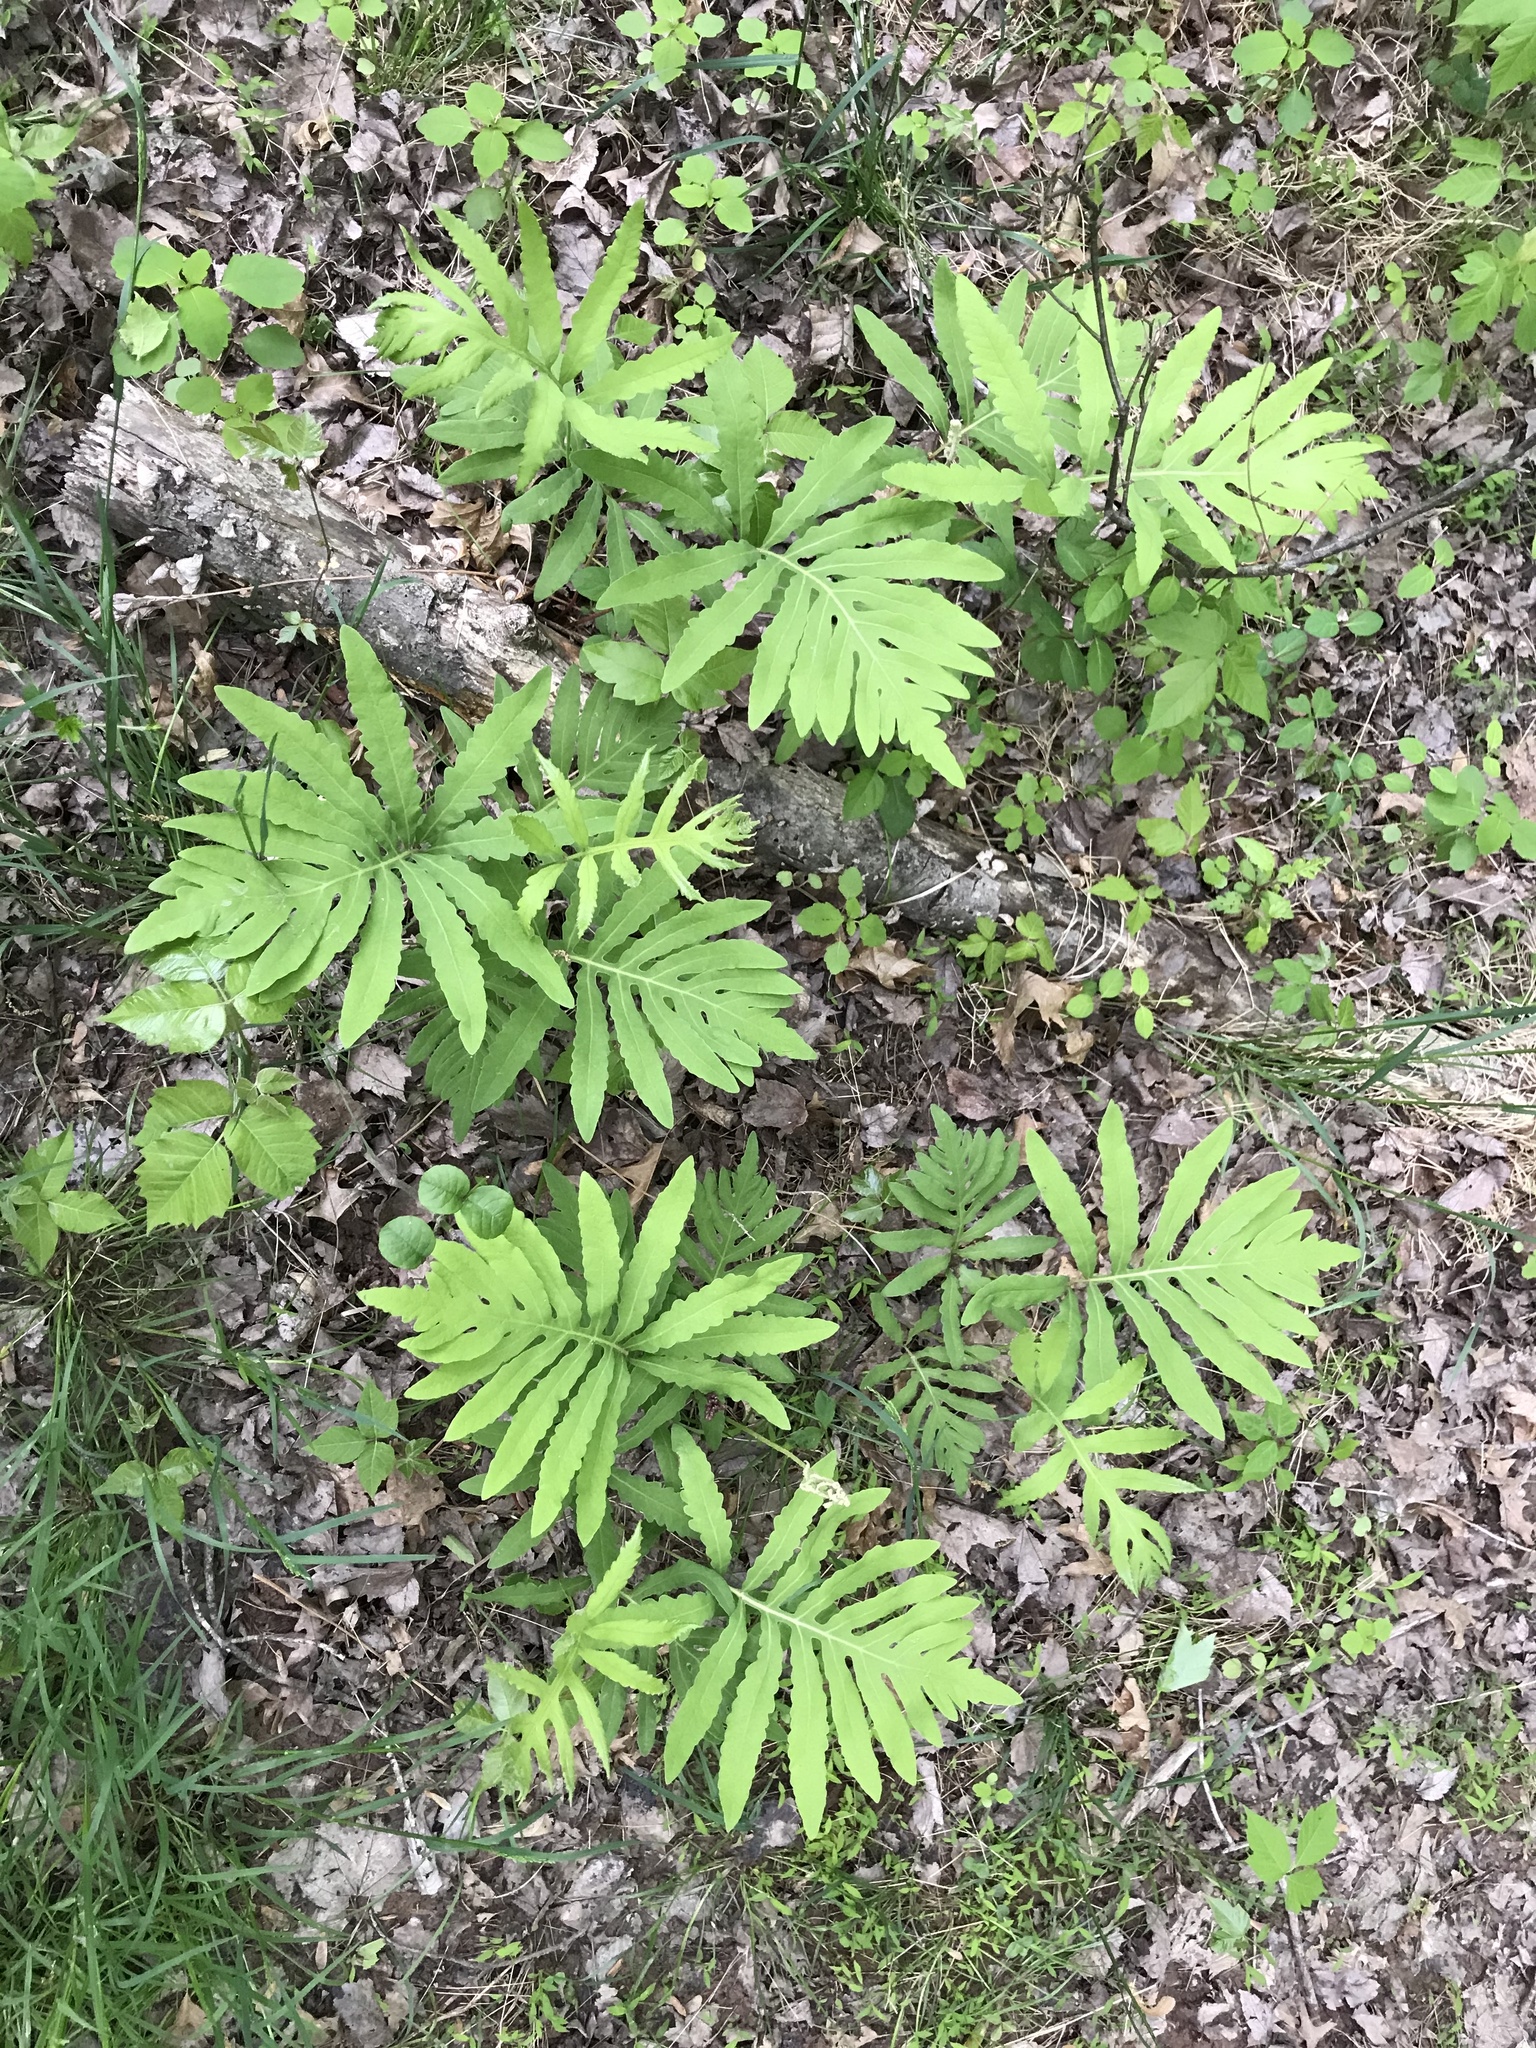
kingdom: Plantae
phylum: Tracheophyta
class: Polypodiopsida
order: Polypodiales
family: Onocleaceae
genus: Onoclea
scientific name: Onoclea sensibilis
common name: Sensitive fern
